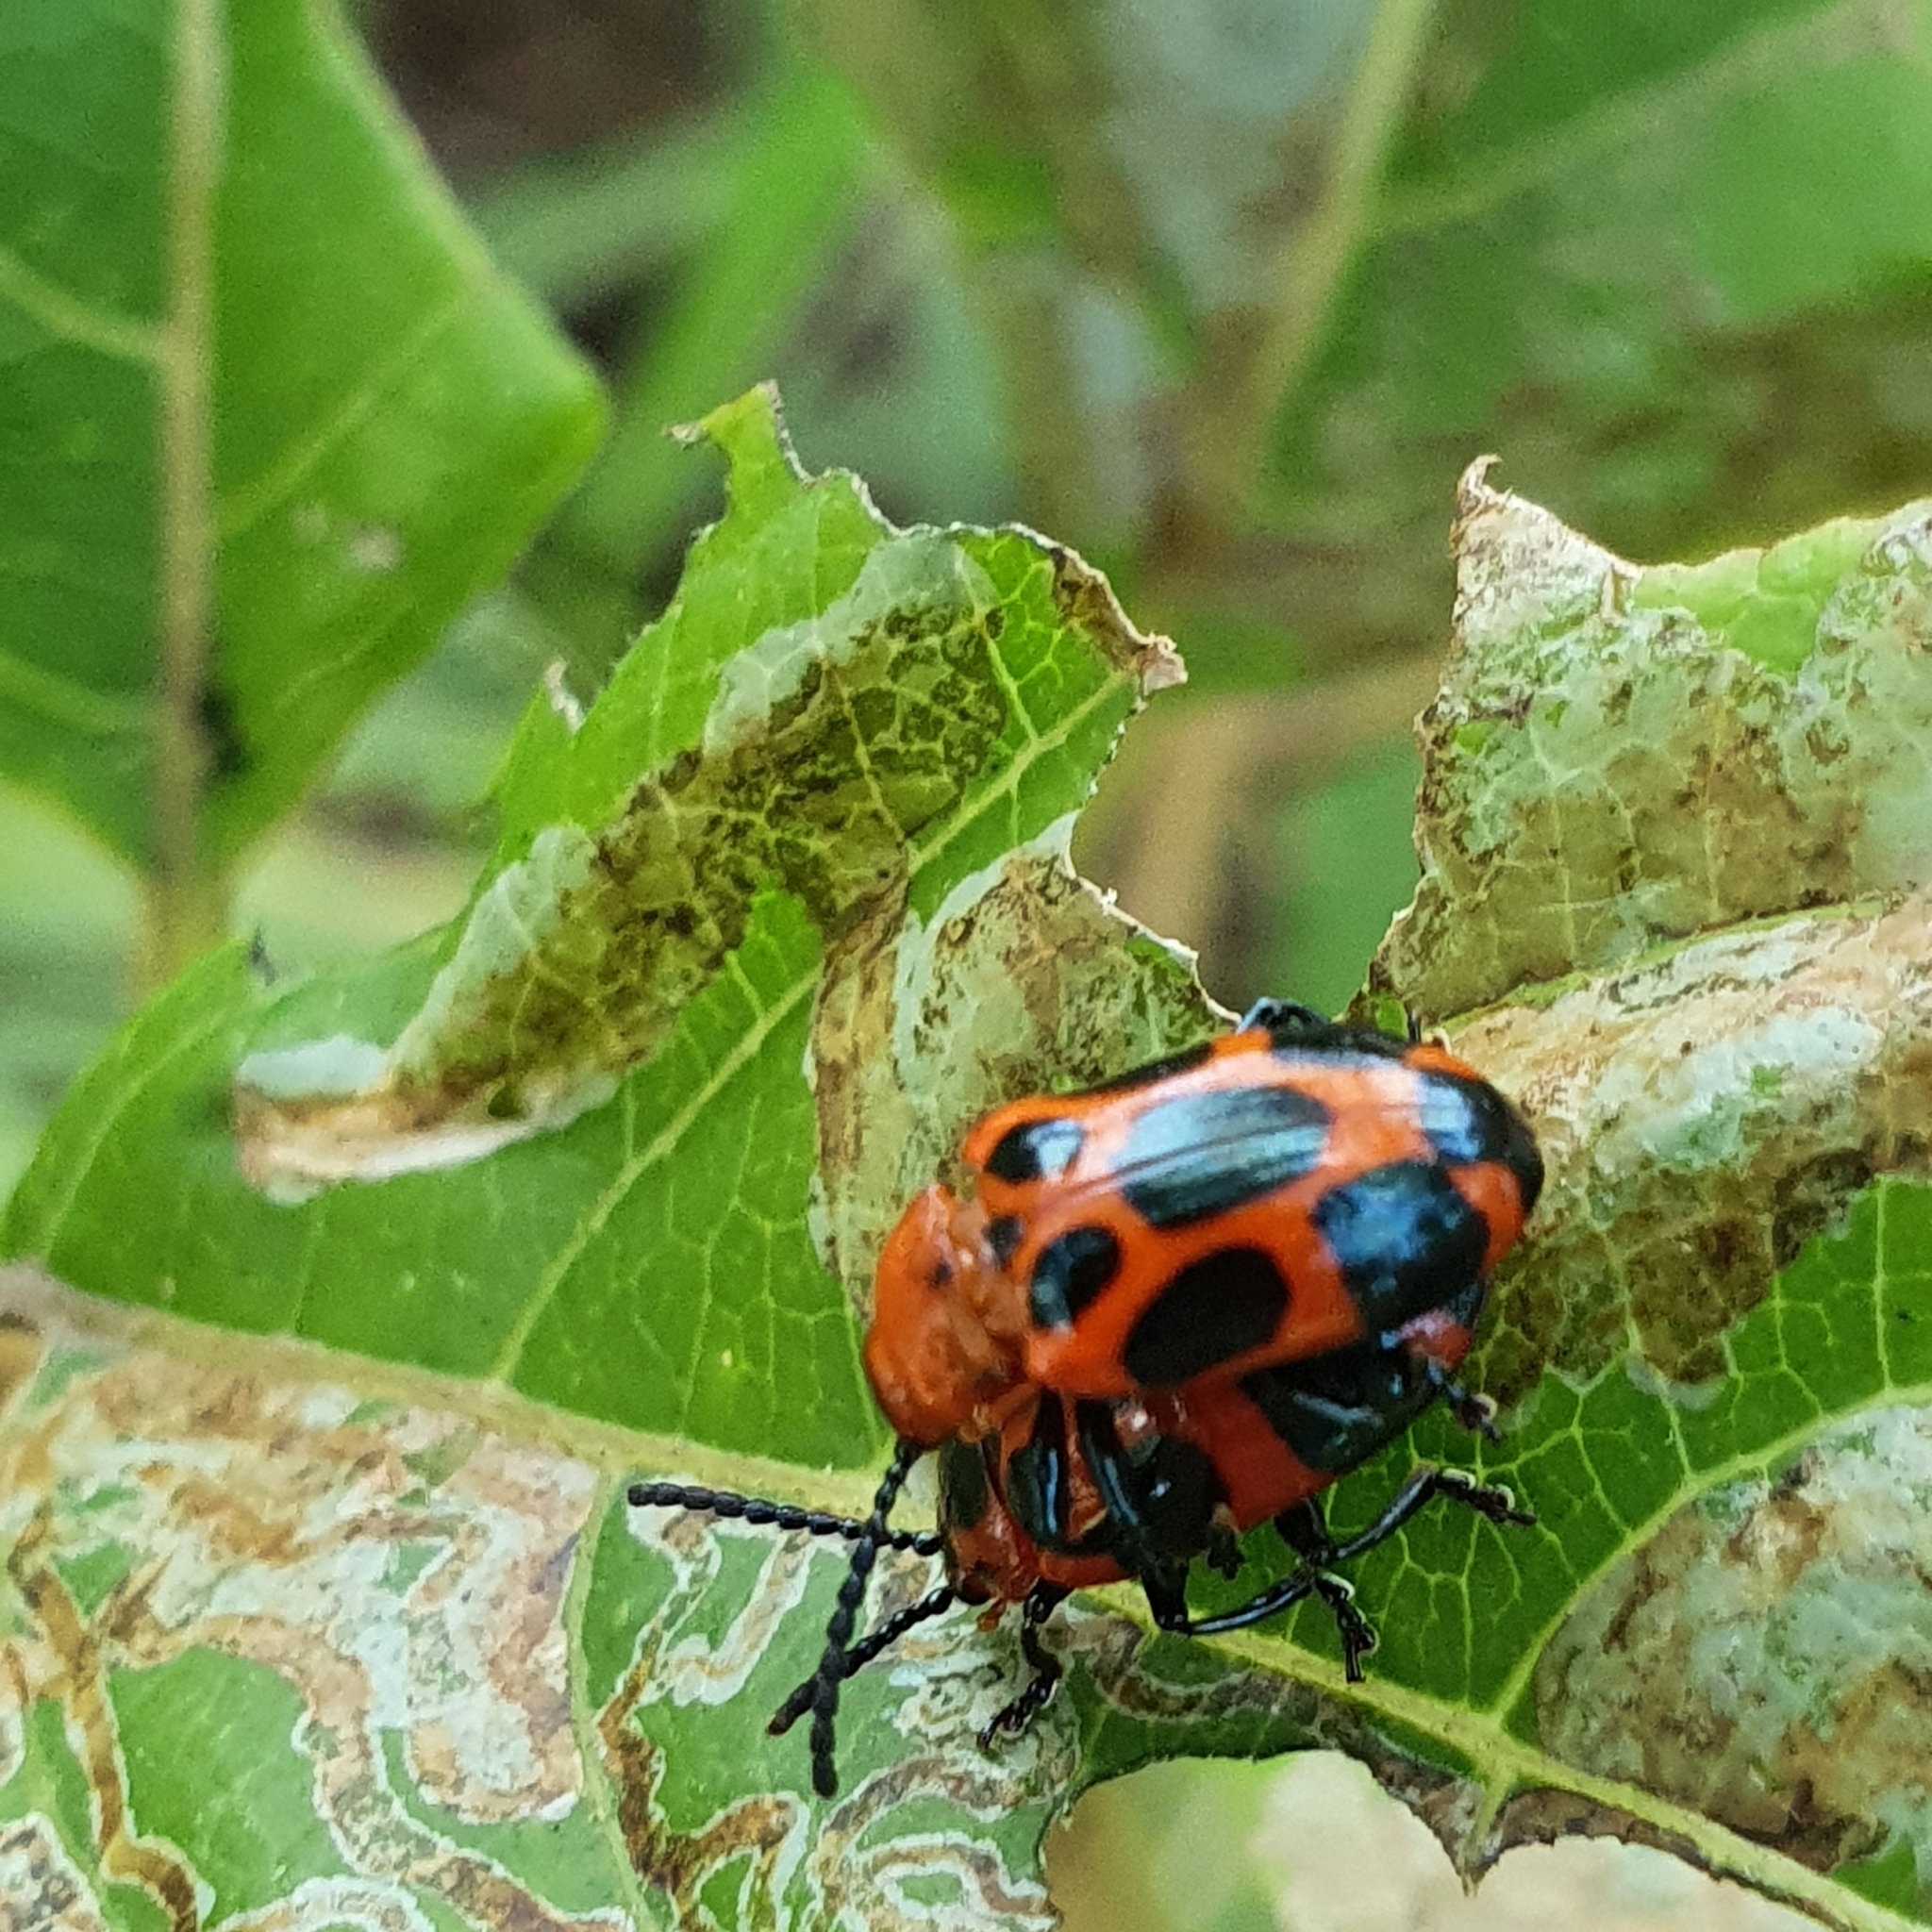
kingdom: Animalia
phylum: Arthropoda
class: Insecta
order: Coleoptera
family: Chrysomelidae
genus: Phyllocharis
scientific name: Phyllocharis
